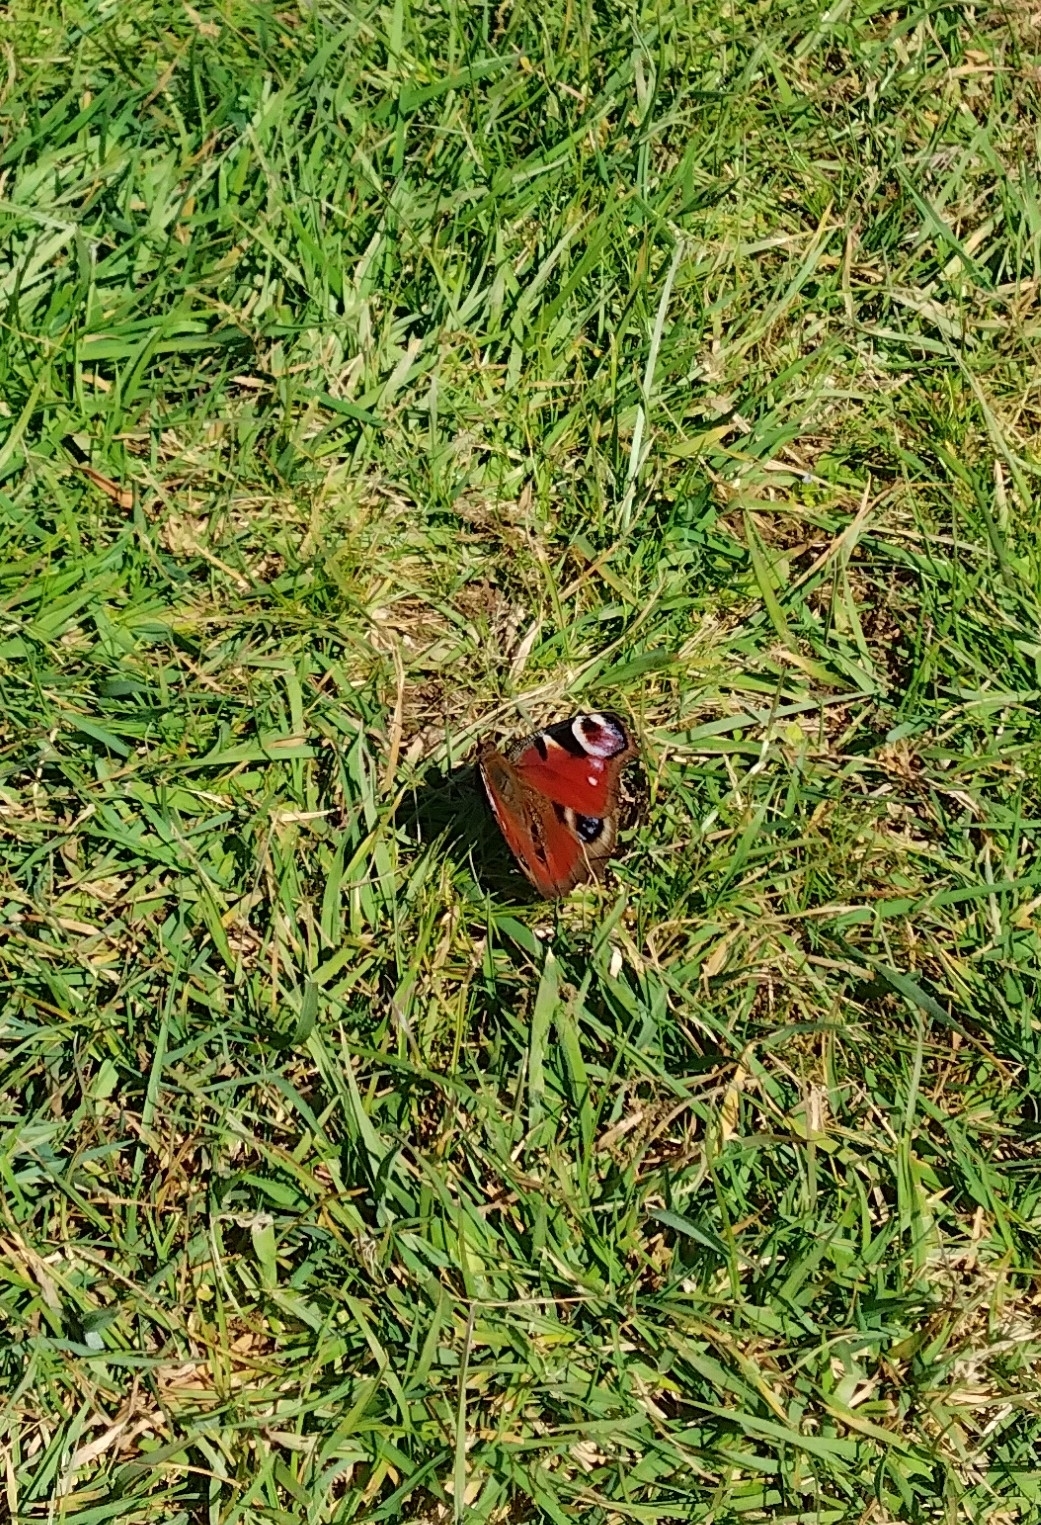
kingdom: Animalia
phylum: Arthropoda
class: Insecta
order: Lepidoptera
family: Nymphalidae
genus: Aglais
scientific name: Aglais io
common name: Peacock
